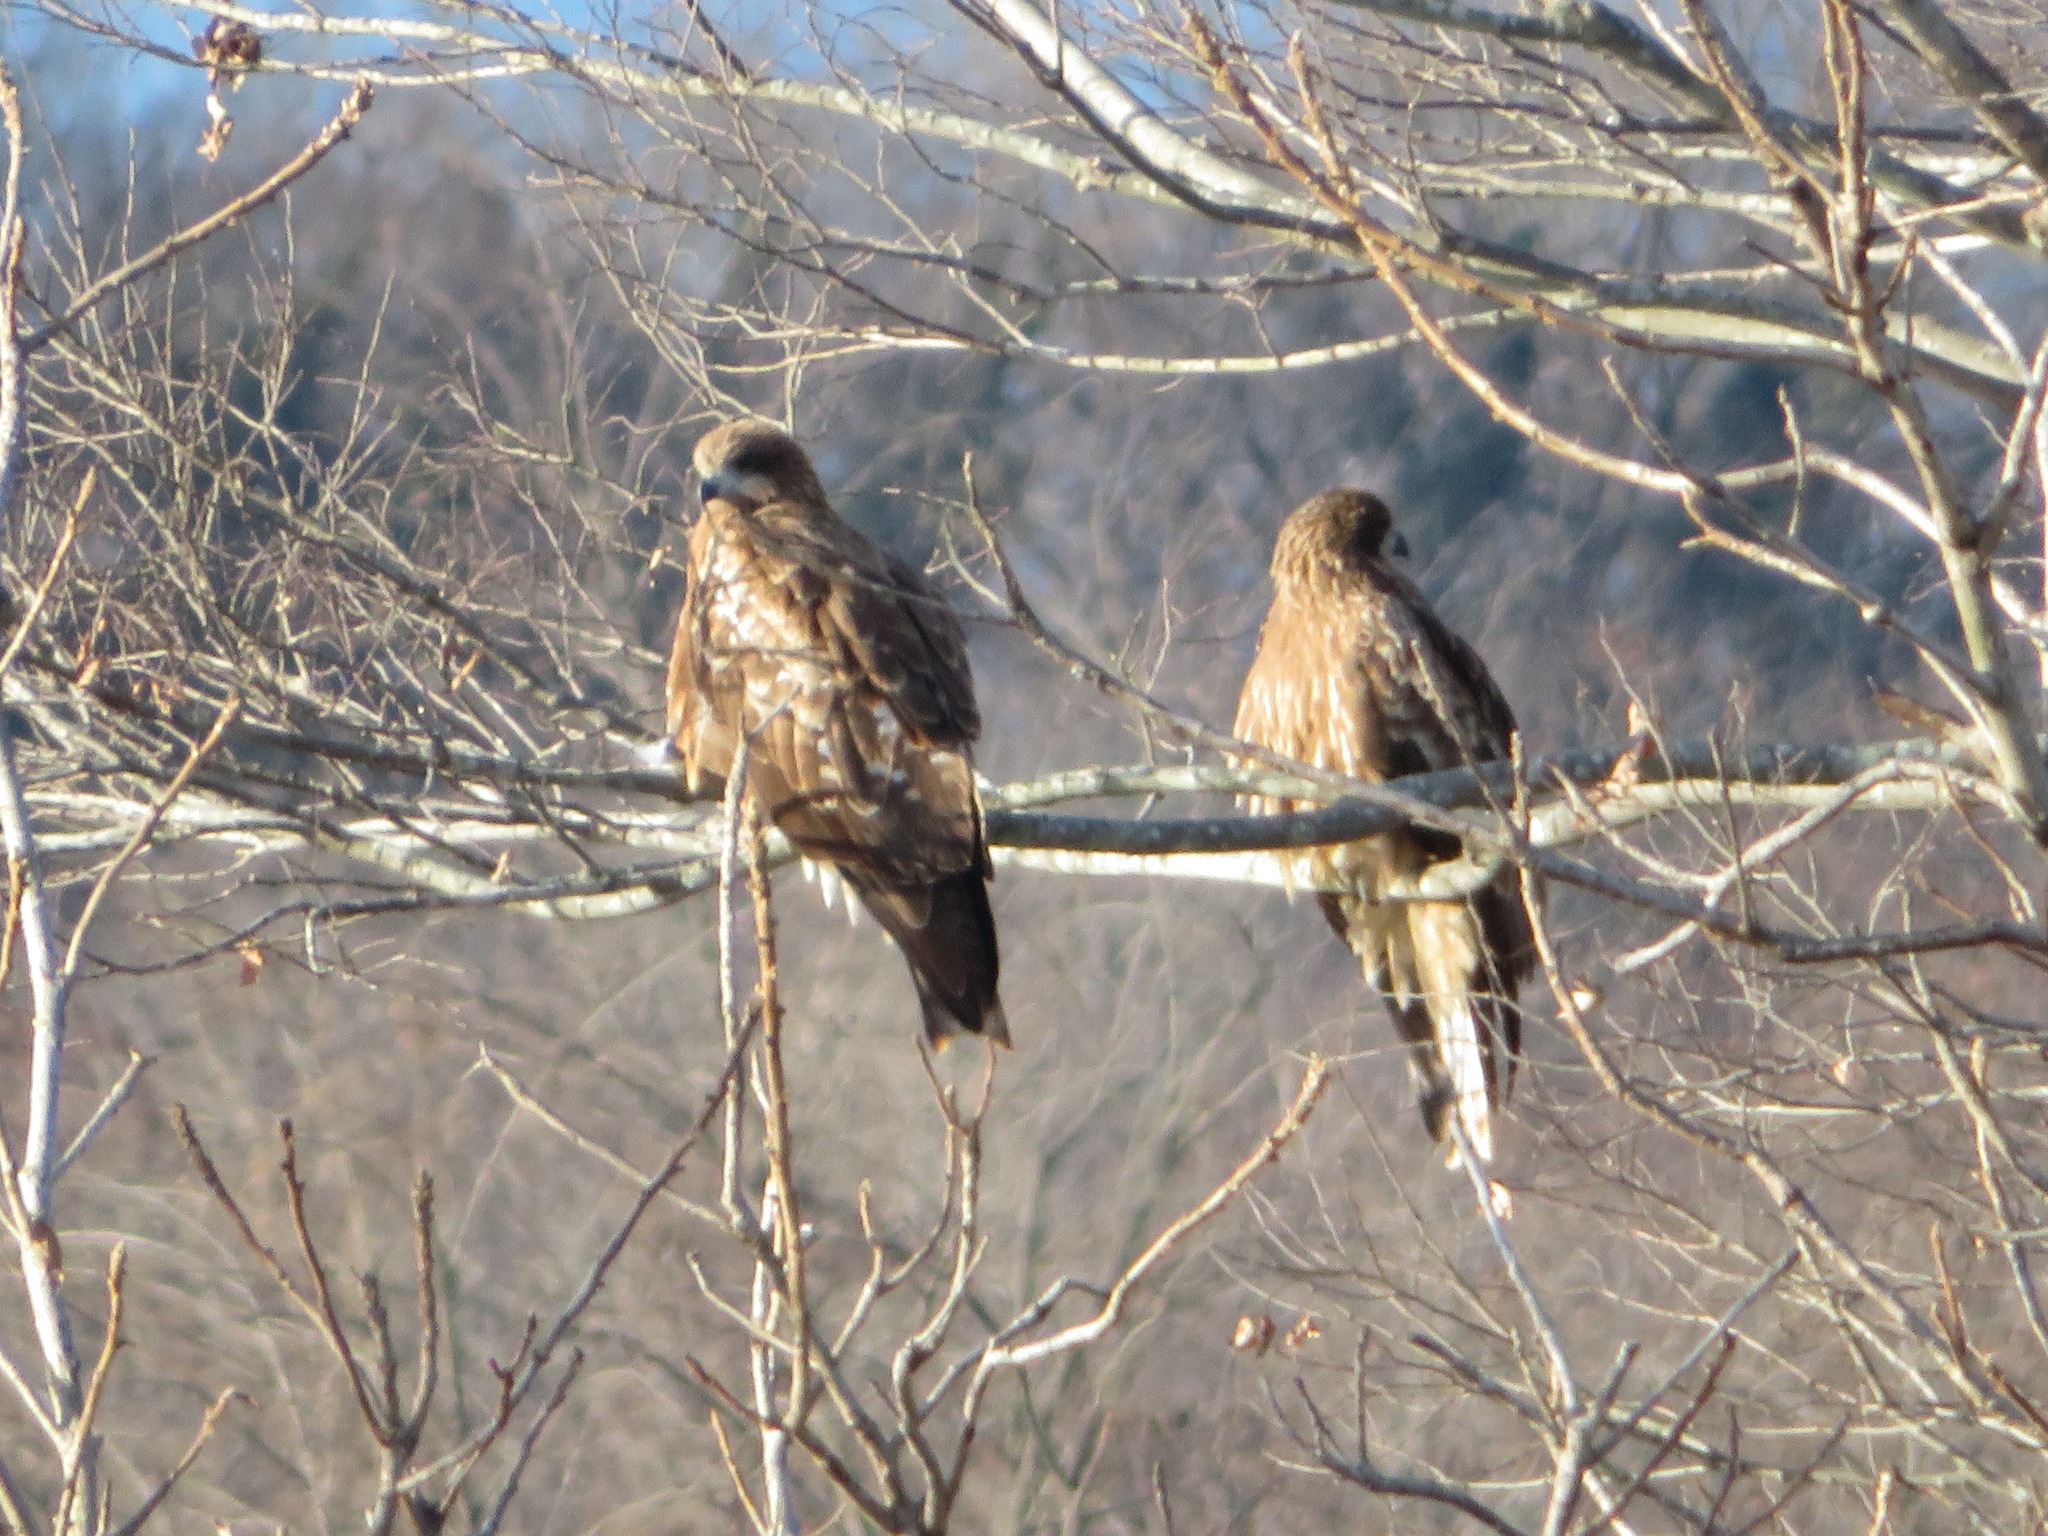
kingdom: Animalia
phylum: Chordata
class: Aves
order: Accipitriformes
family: Accipitridae
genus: Milvus
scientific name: Milvus migrans
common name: Black kite
